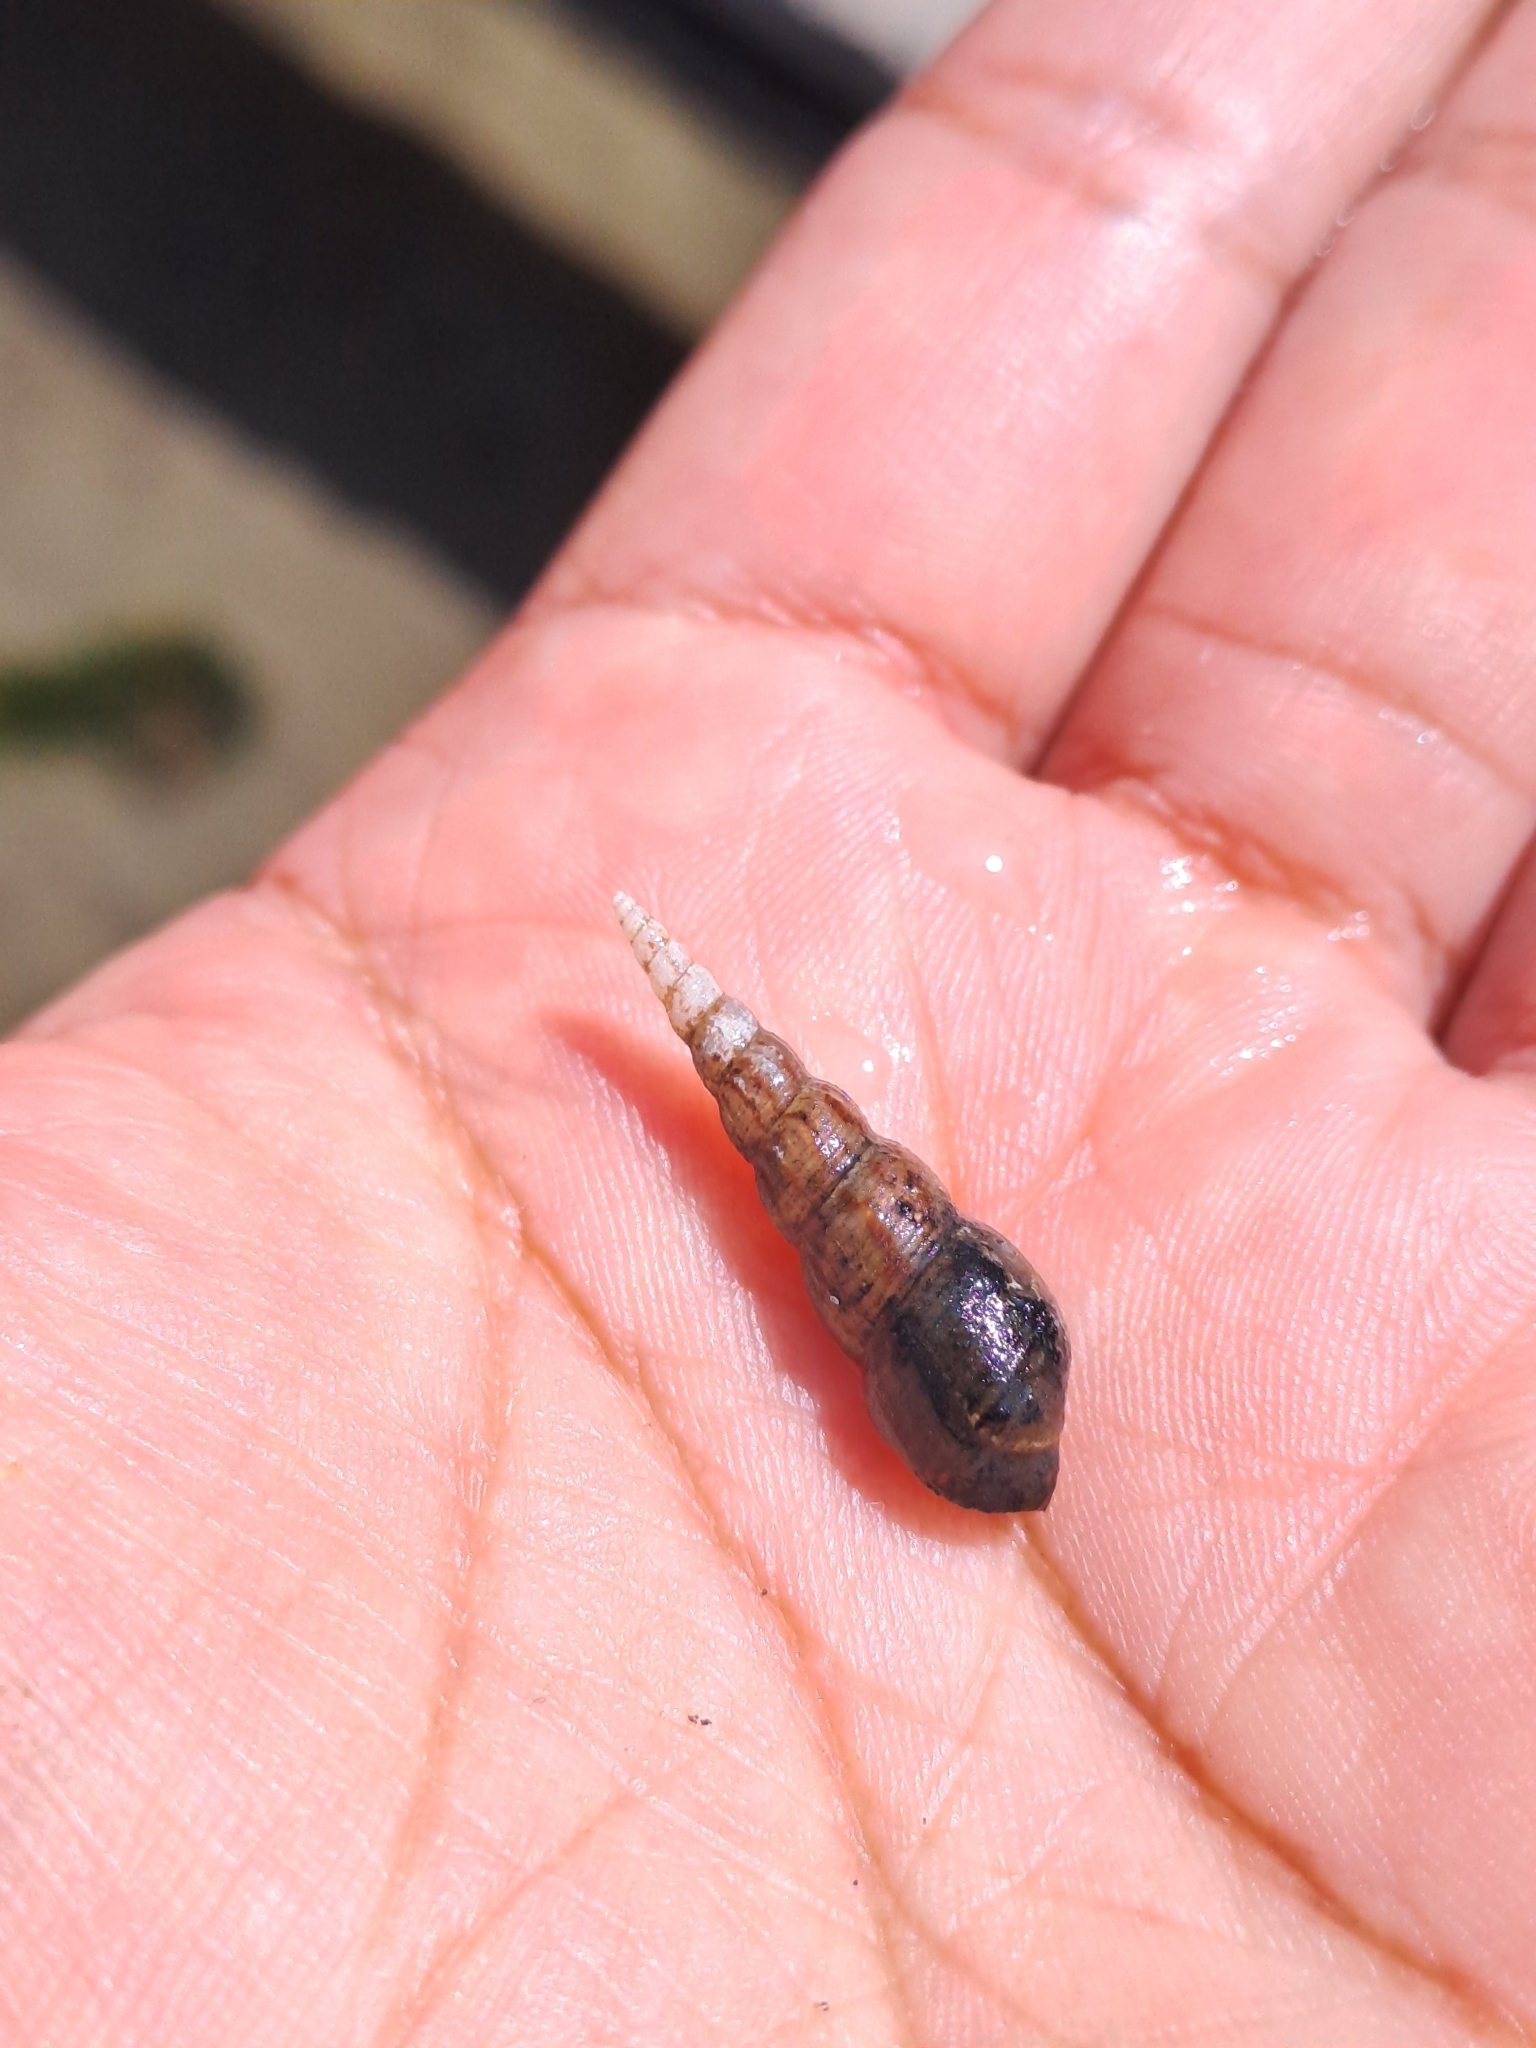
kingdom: Animalia
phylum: Mollusca
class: Gastropoda
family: Thiaridae
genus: Melanoides
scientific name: Melanoides tuberculata
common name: Red-rim melania
